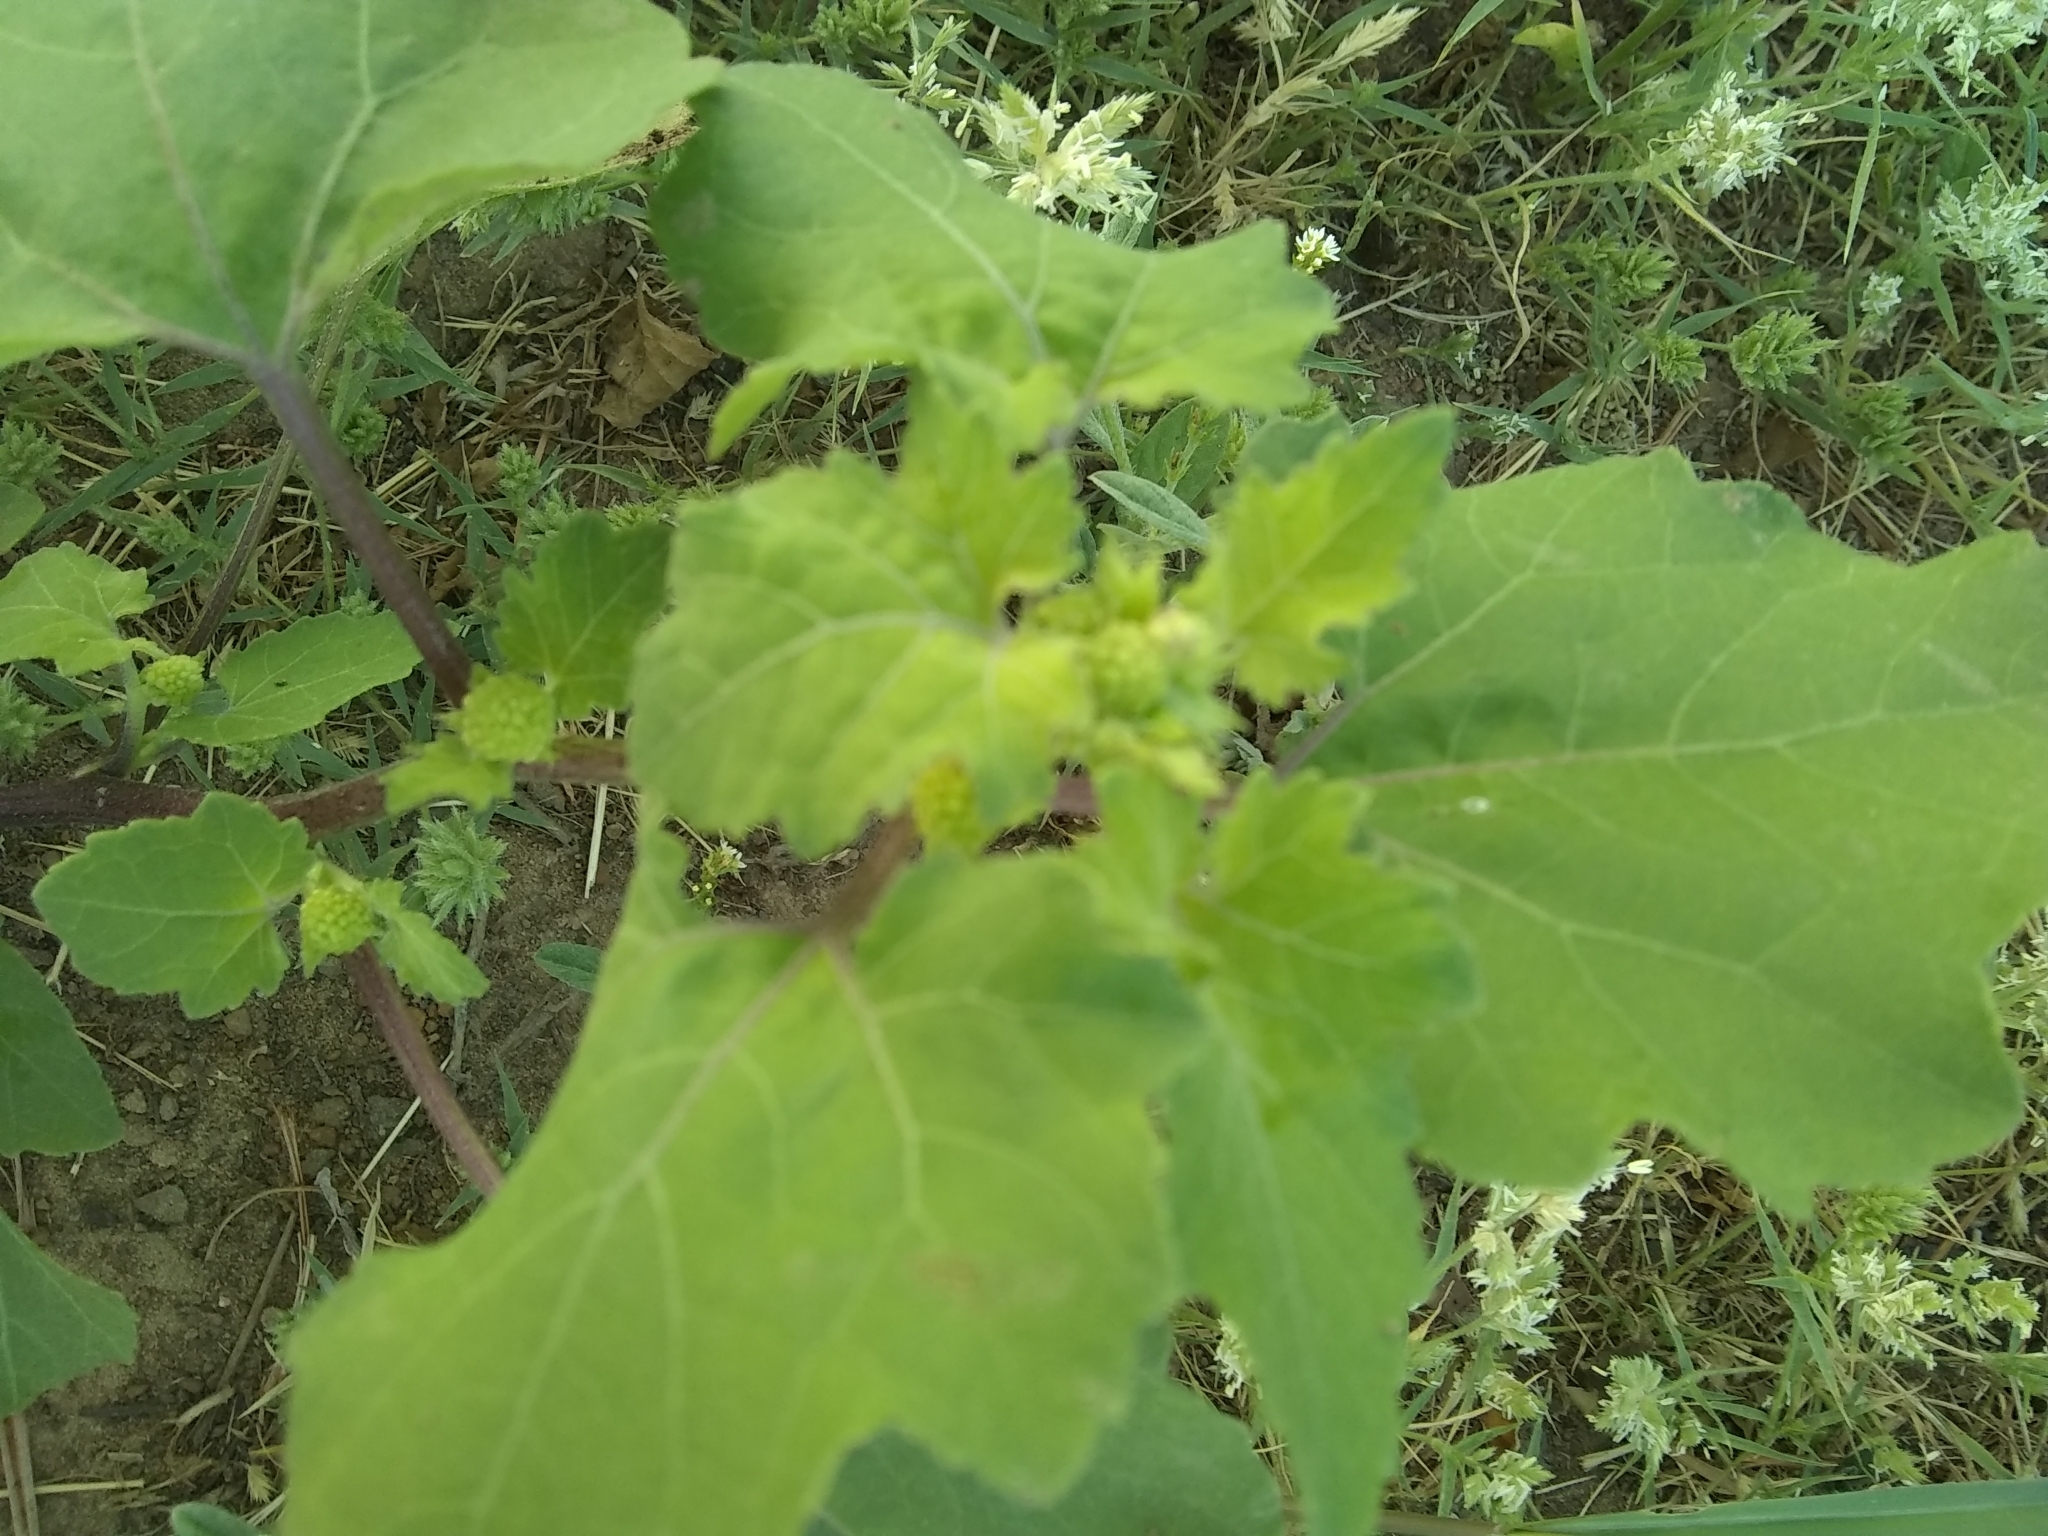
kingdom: Plantae
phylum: Tracheophyta
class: Magnoliopsida
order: Asterales
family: Asteraceae
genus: Xanthium
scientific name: Xanthium strumarium
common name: Rough cocklebur
